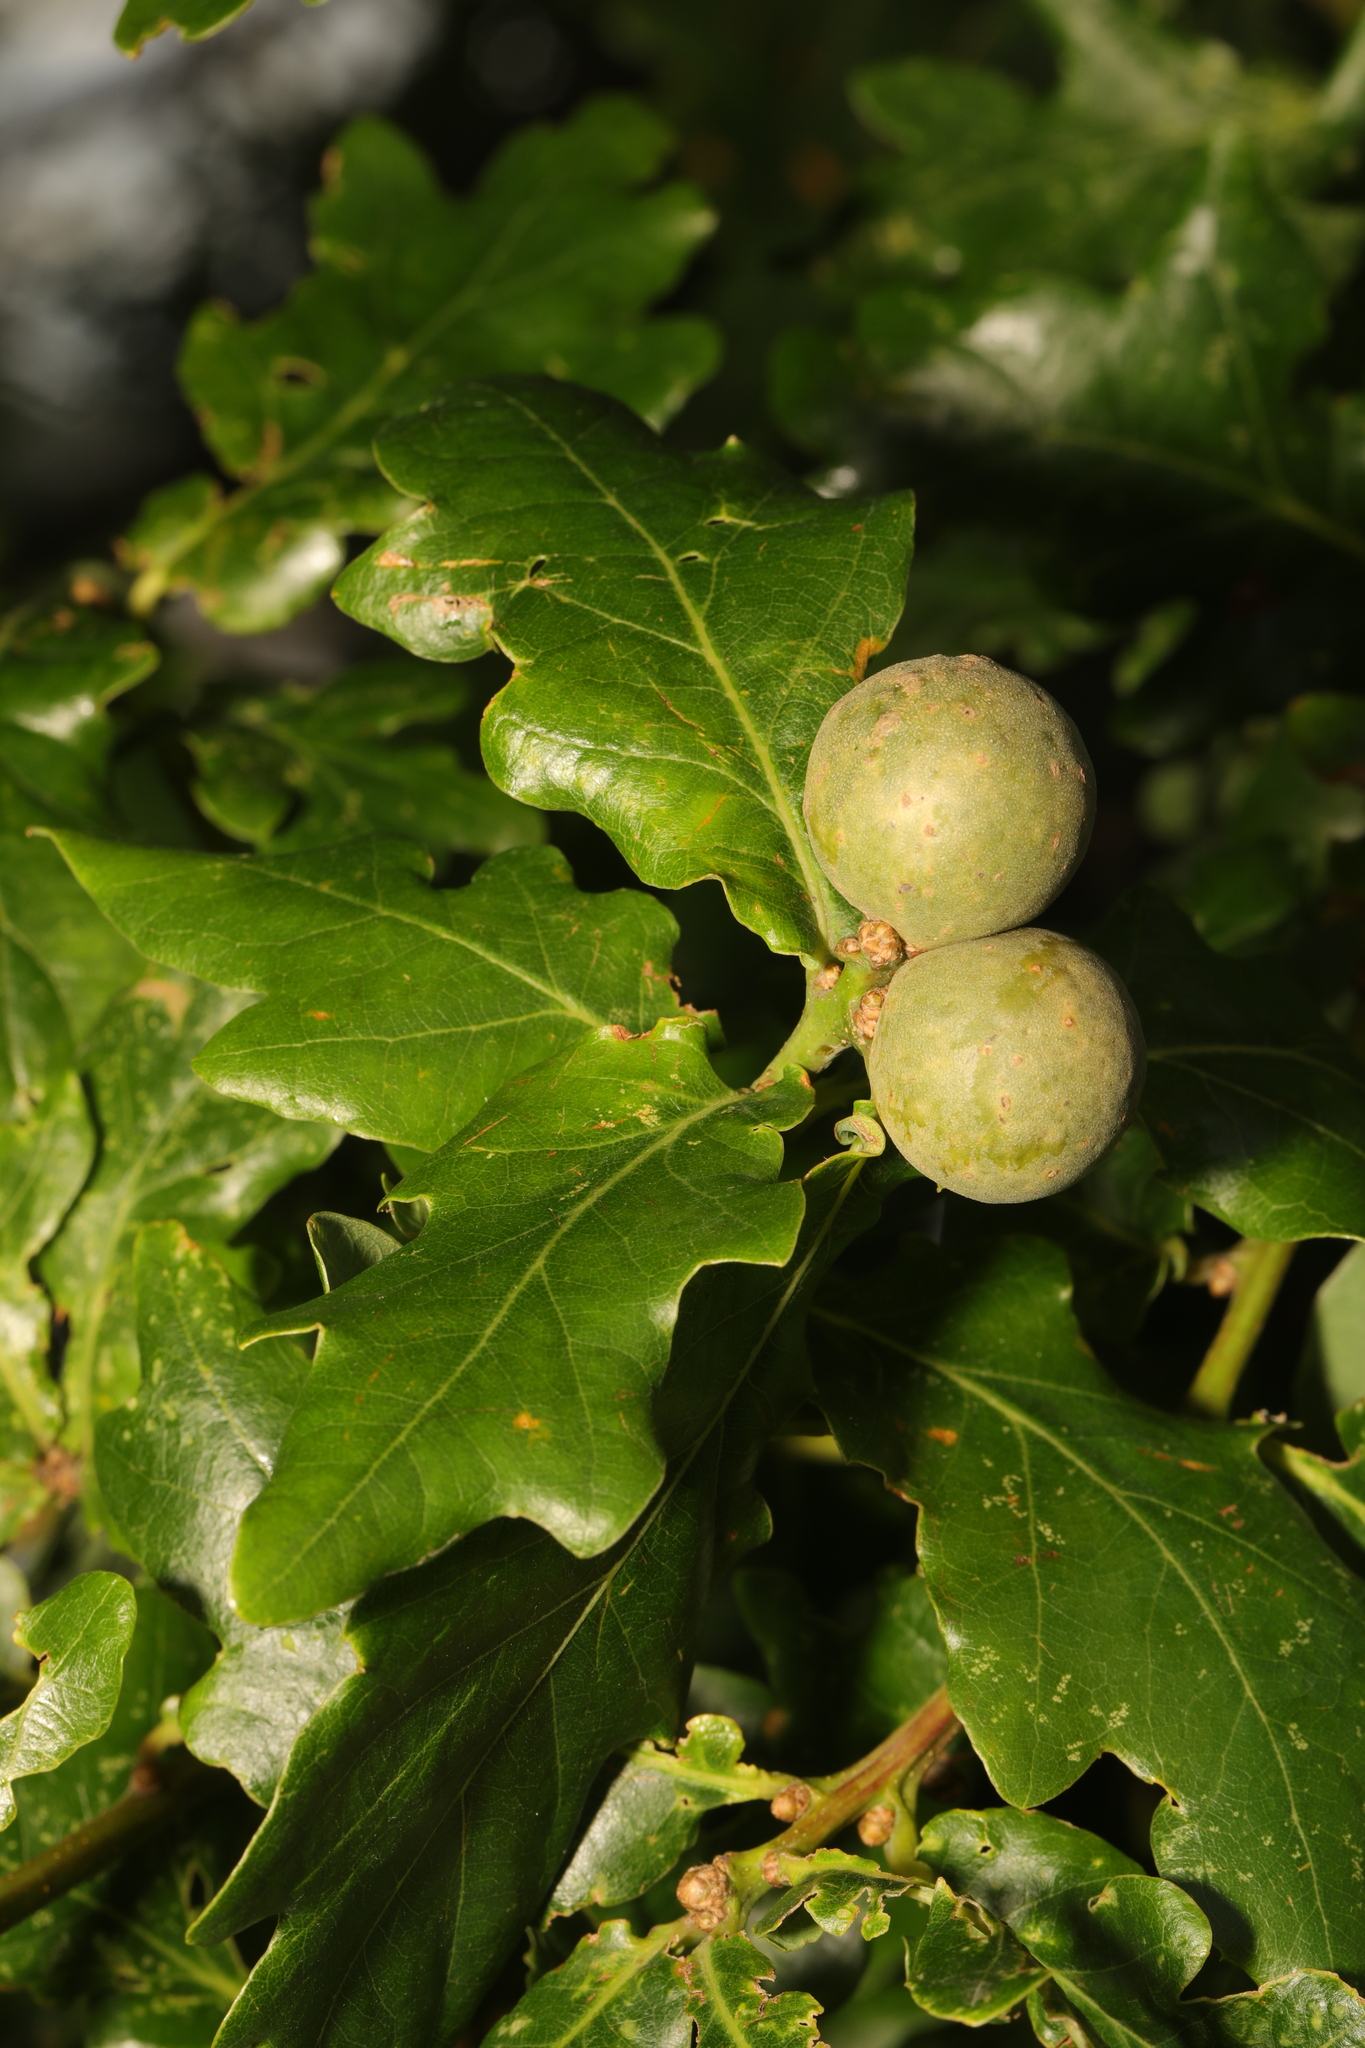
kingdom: Animalia
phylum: Arthropoda
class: Insecta
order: Hymenoptera
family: Cynipidae
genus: Andricus
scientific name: Andricus kollari
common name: Marble gall
